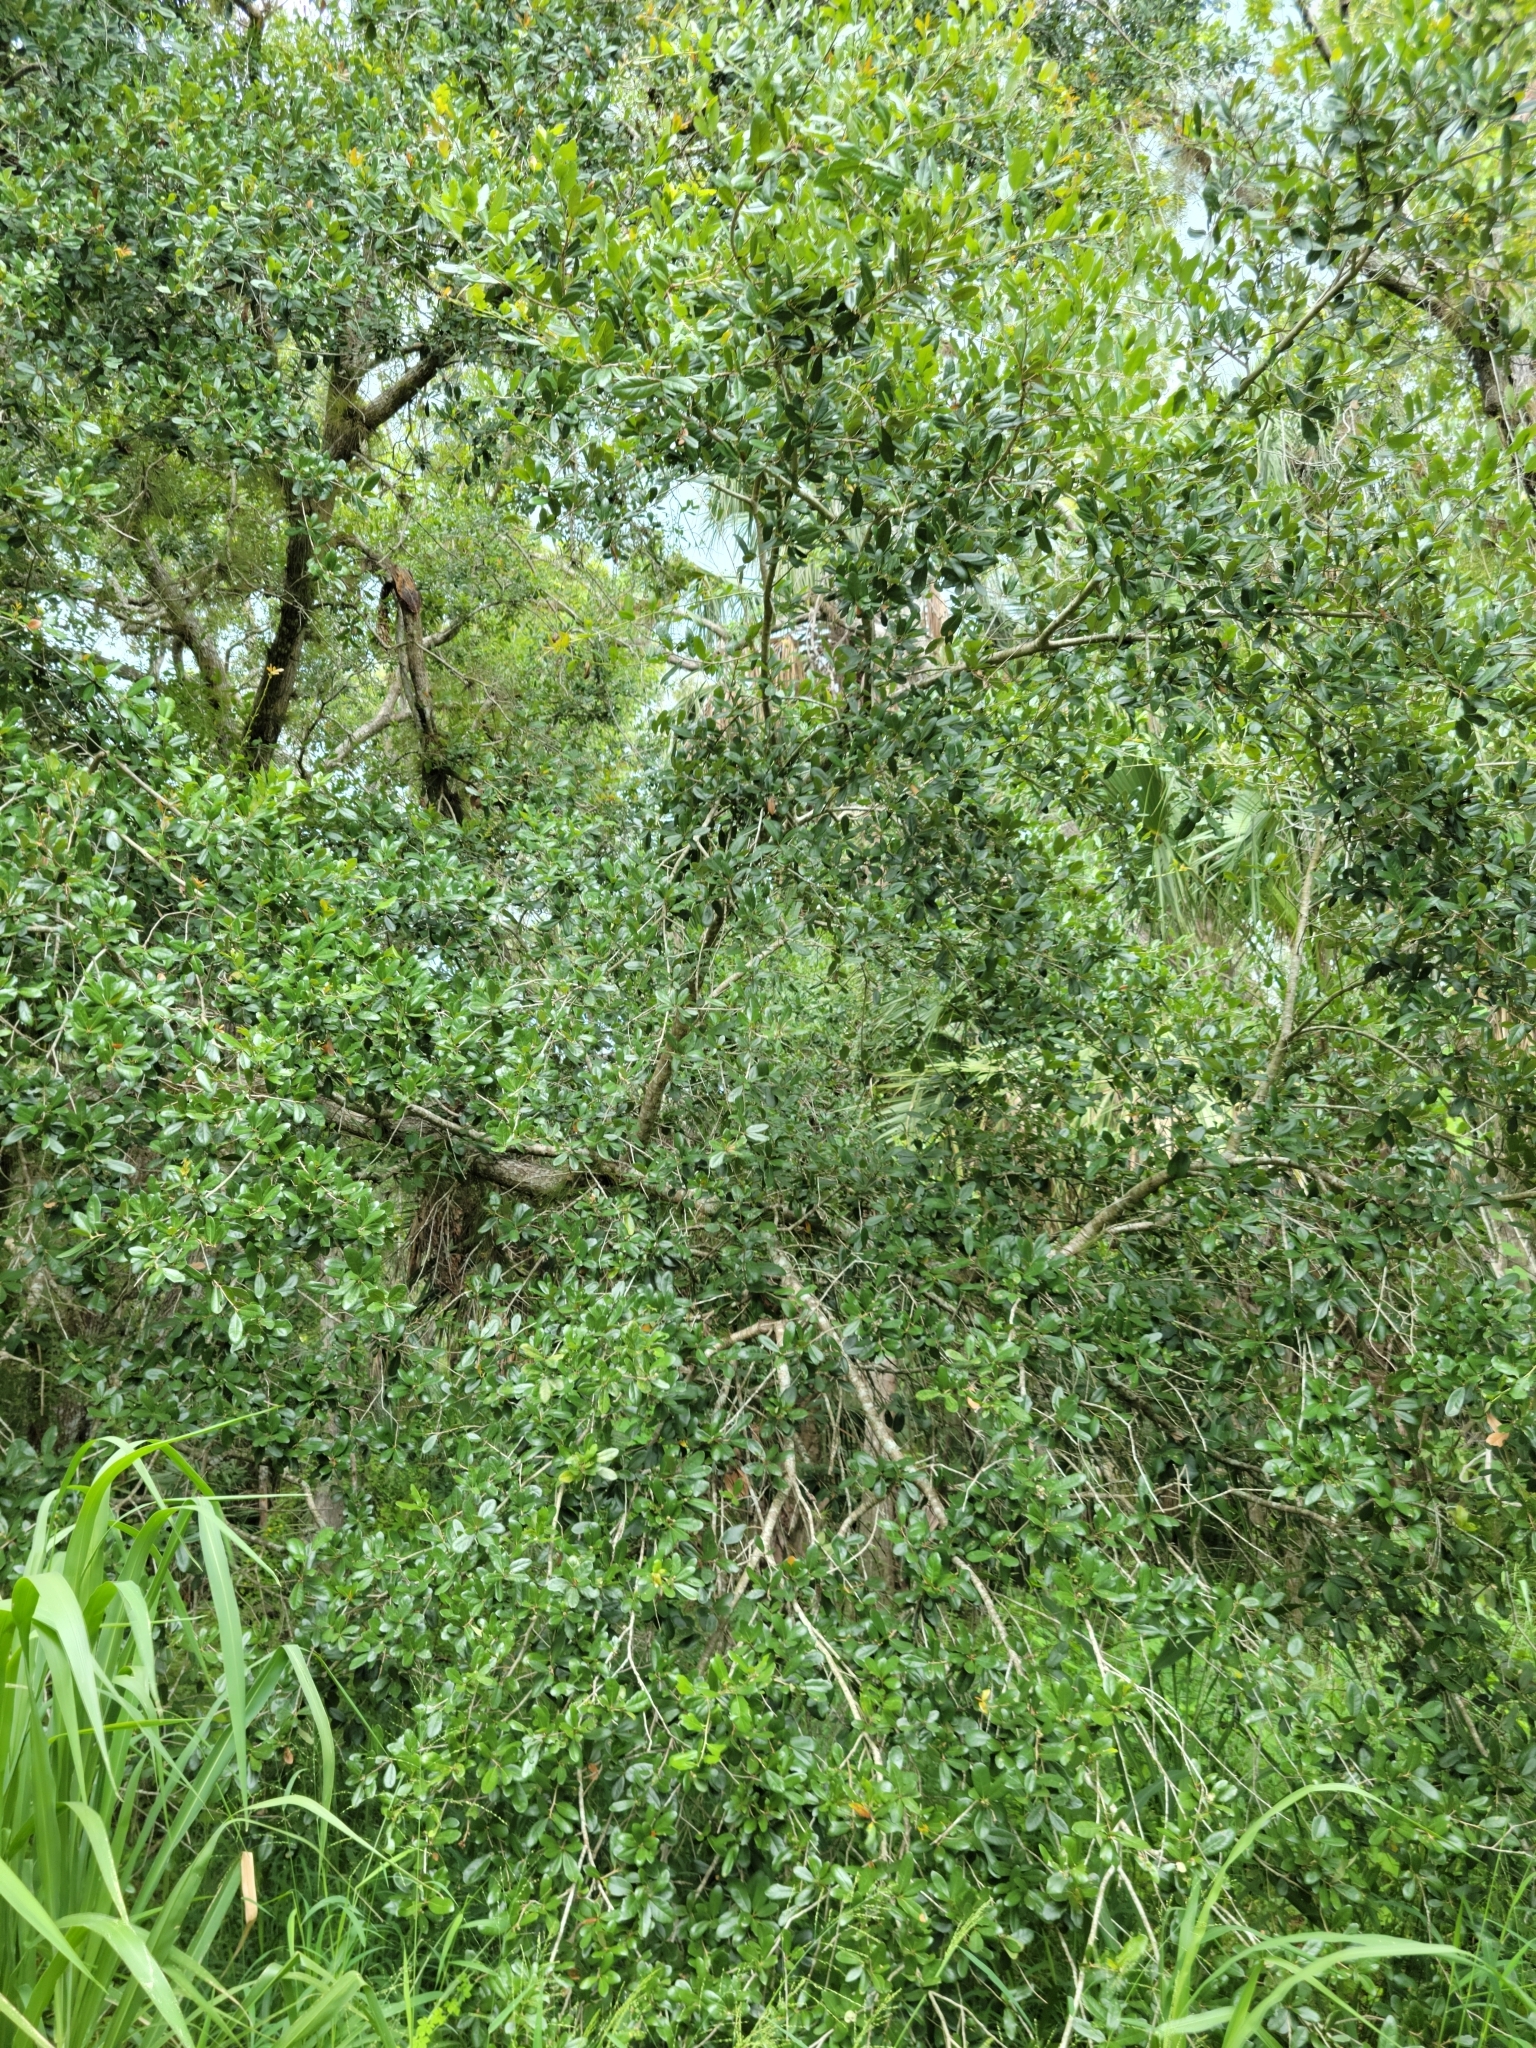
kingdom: Plantae
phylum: Tracheophyta
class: Magnoliopsida
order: Fagales
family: Fagaceae
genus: Quercus
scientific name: Quercus virginiana
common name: Southern live oak
